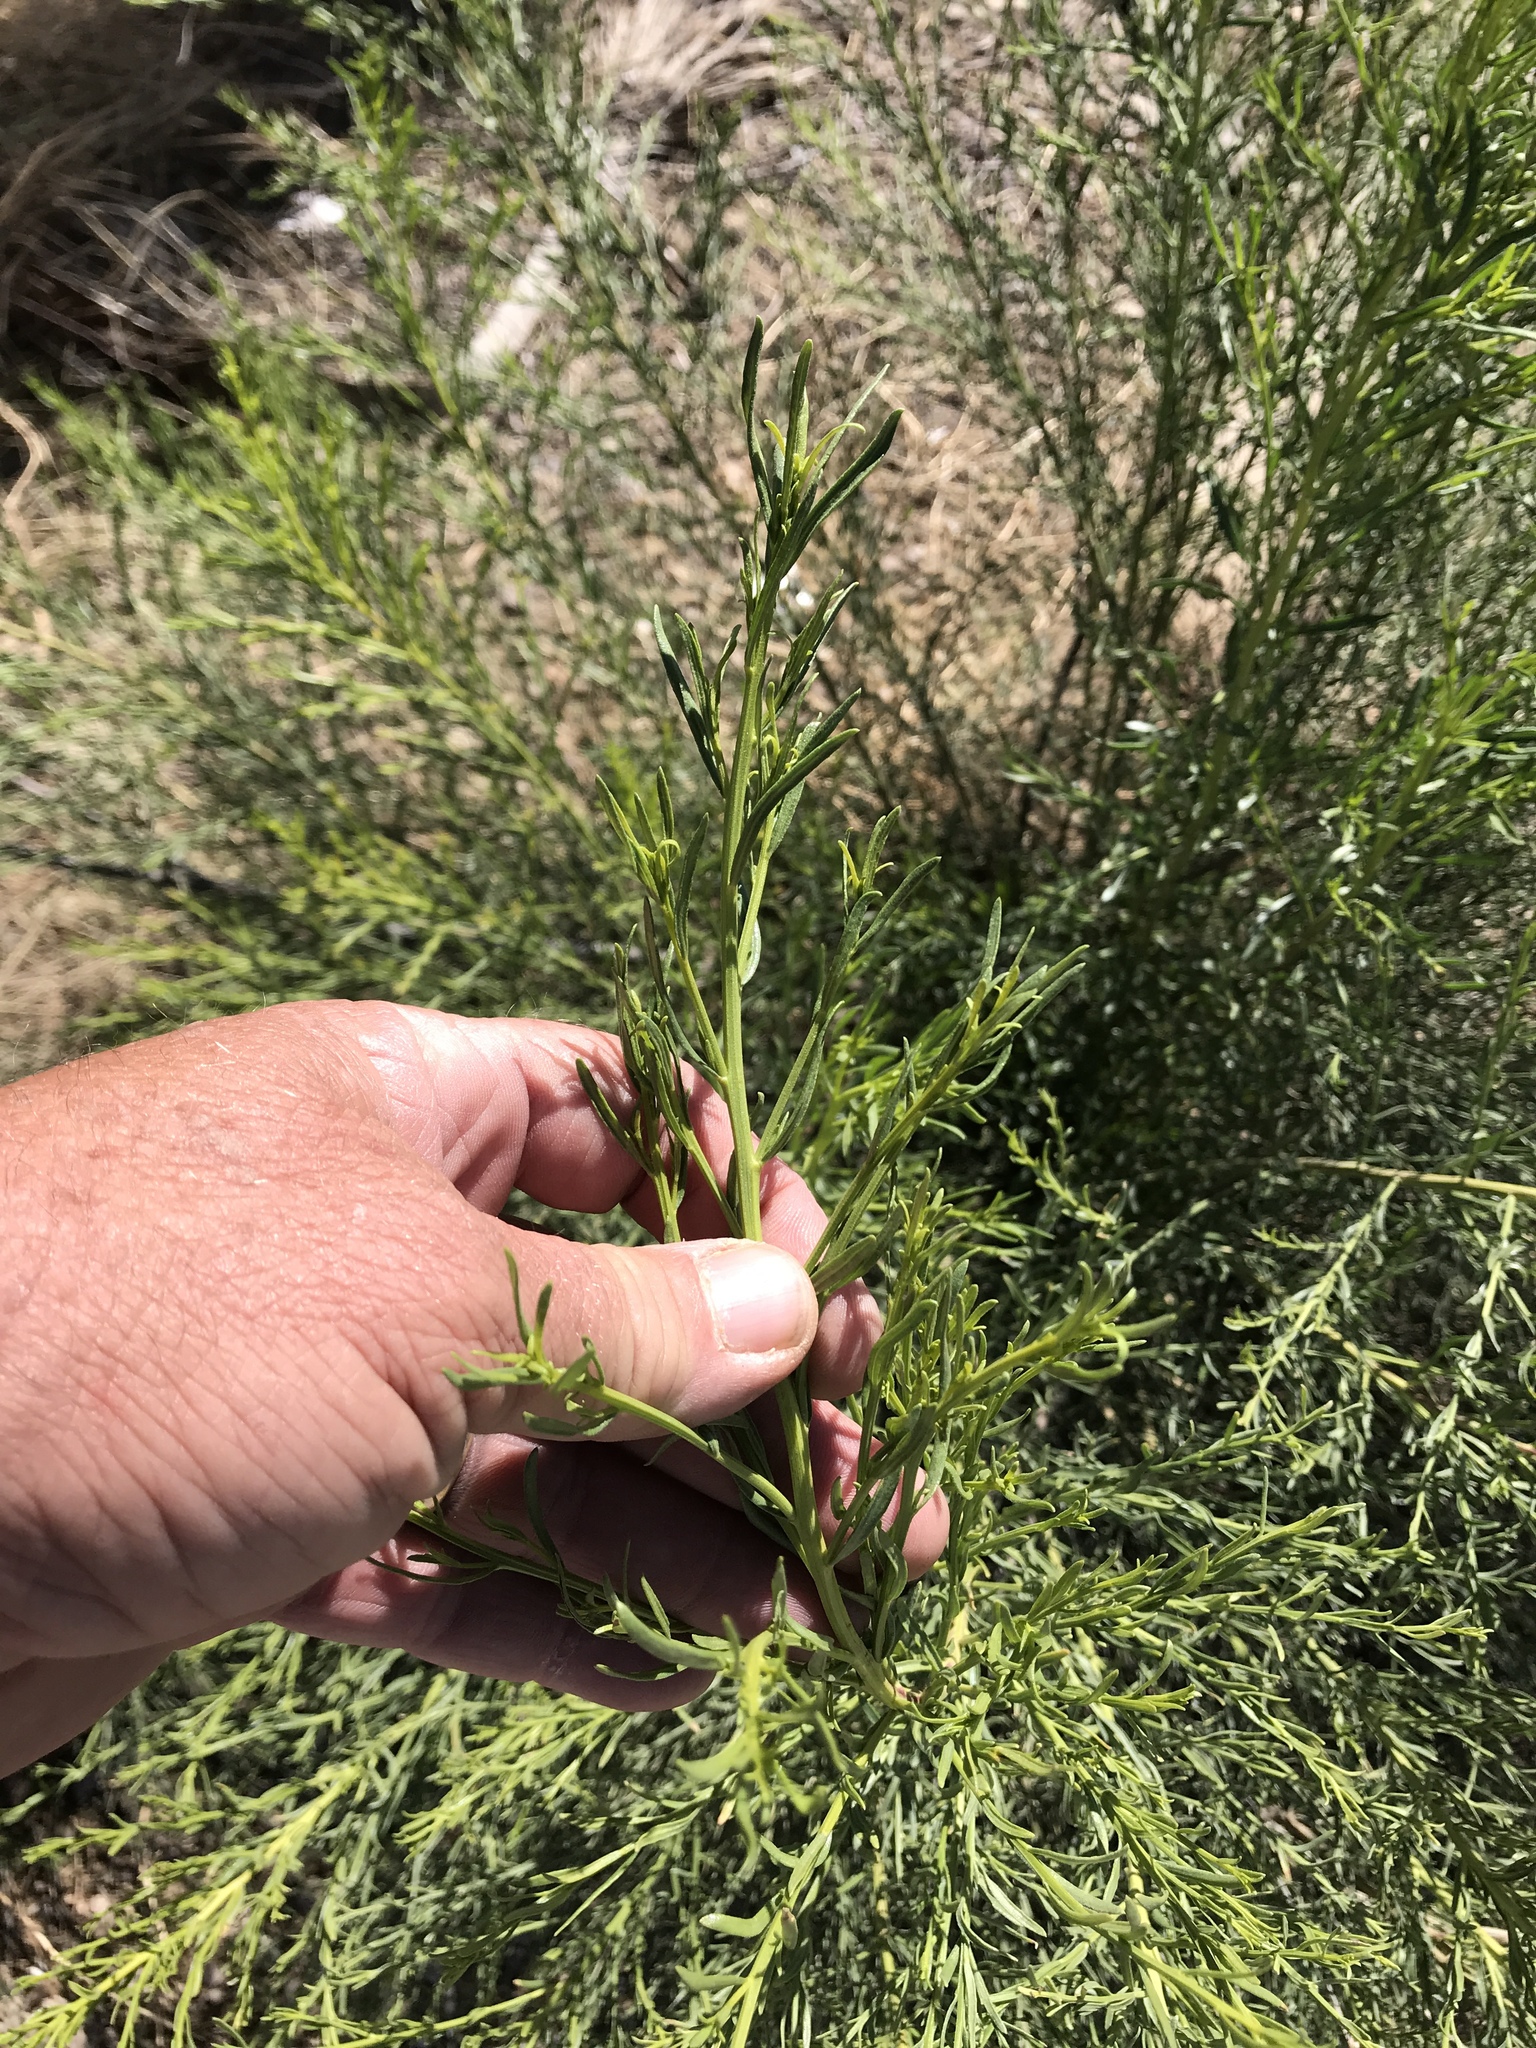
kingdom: Plantae
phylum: Tracheophyta
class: Magnoliopsida
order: Asterales
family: Asteraceae
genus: Baccharis
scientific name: Baccharis sarothroides
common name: Desert-broom
